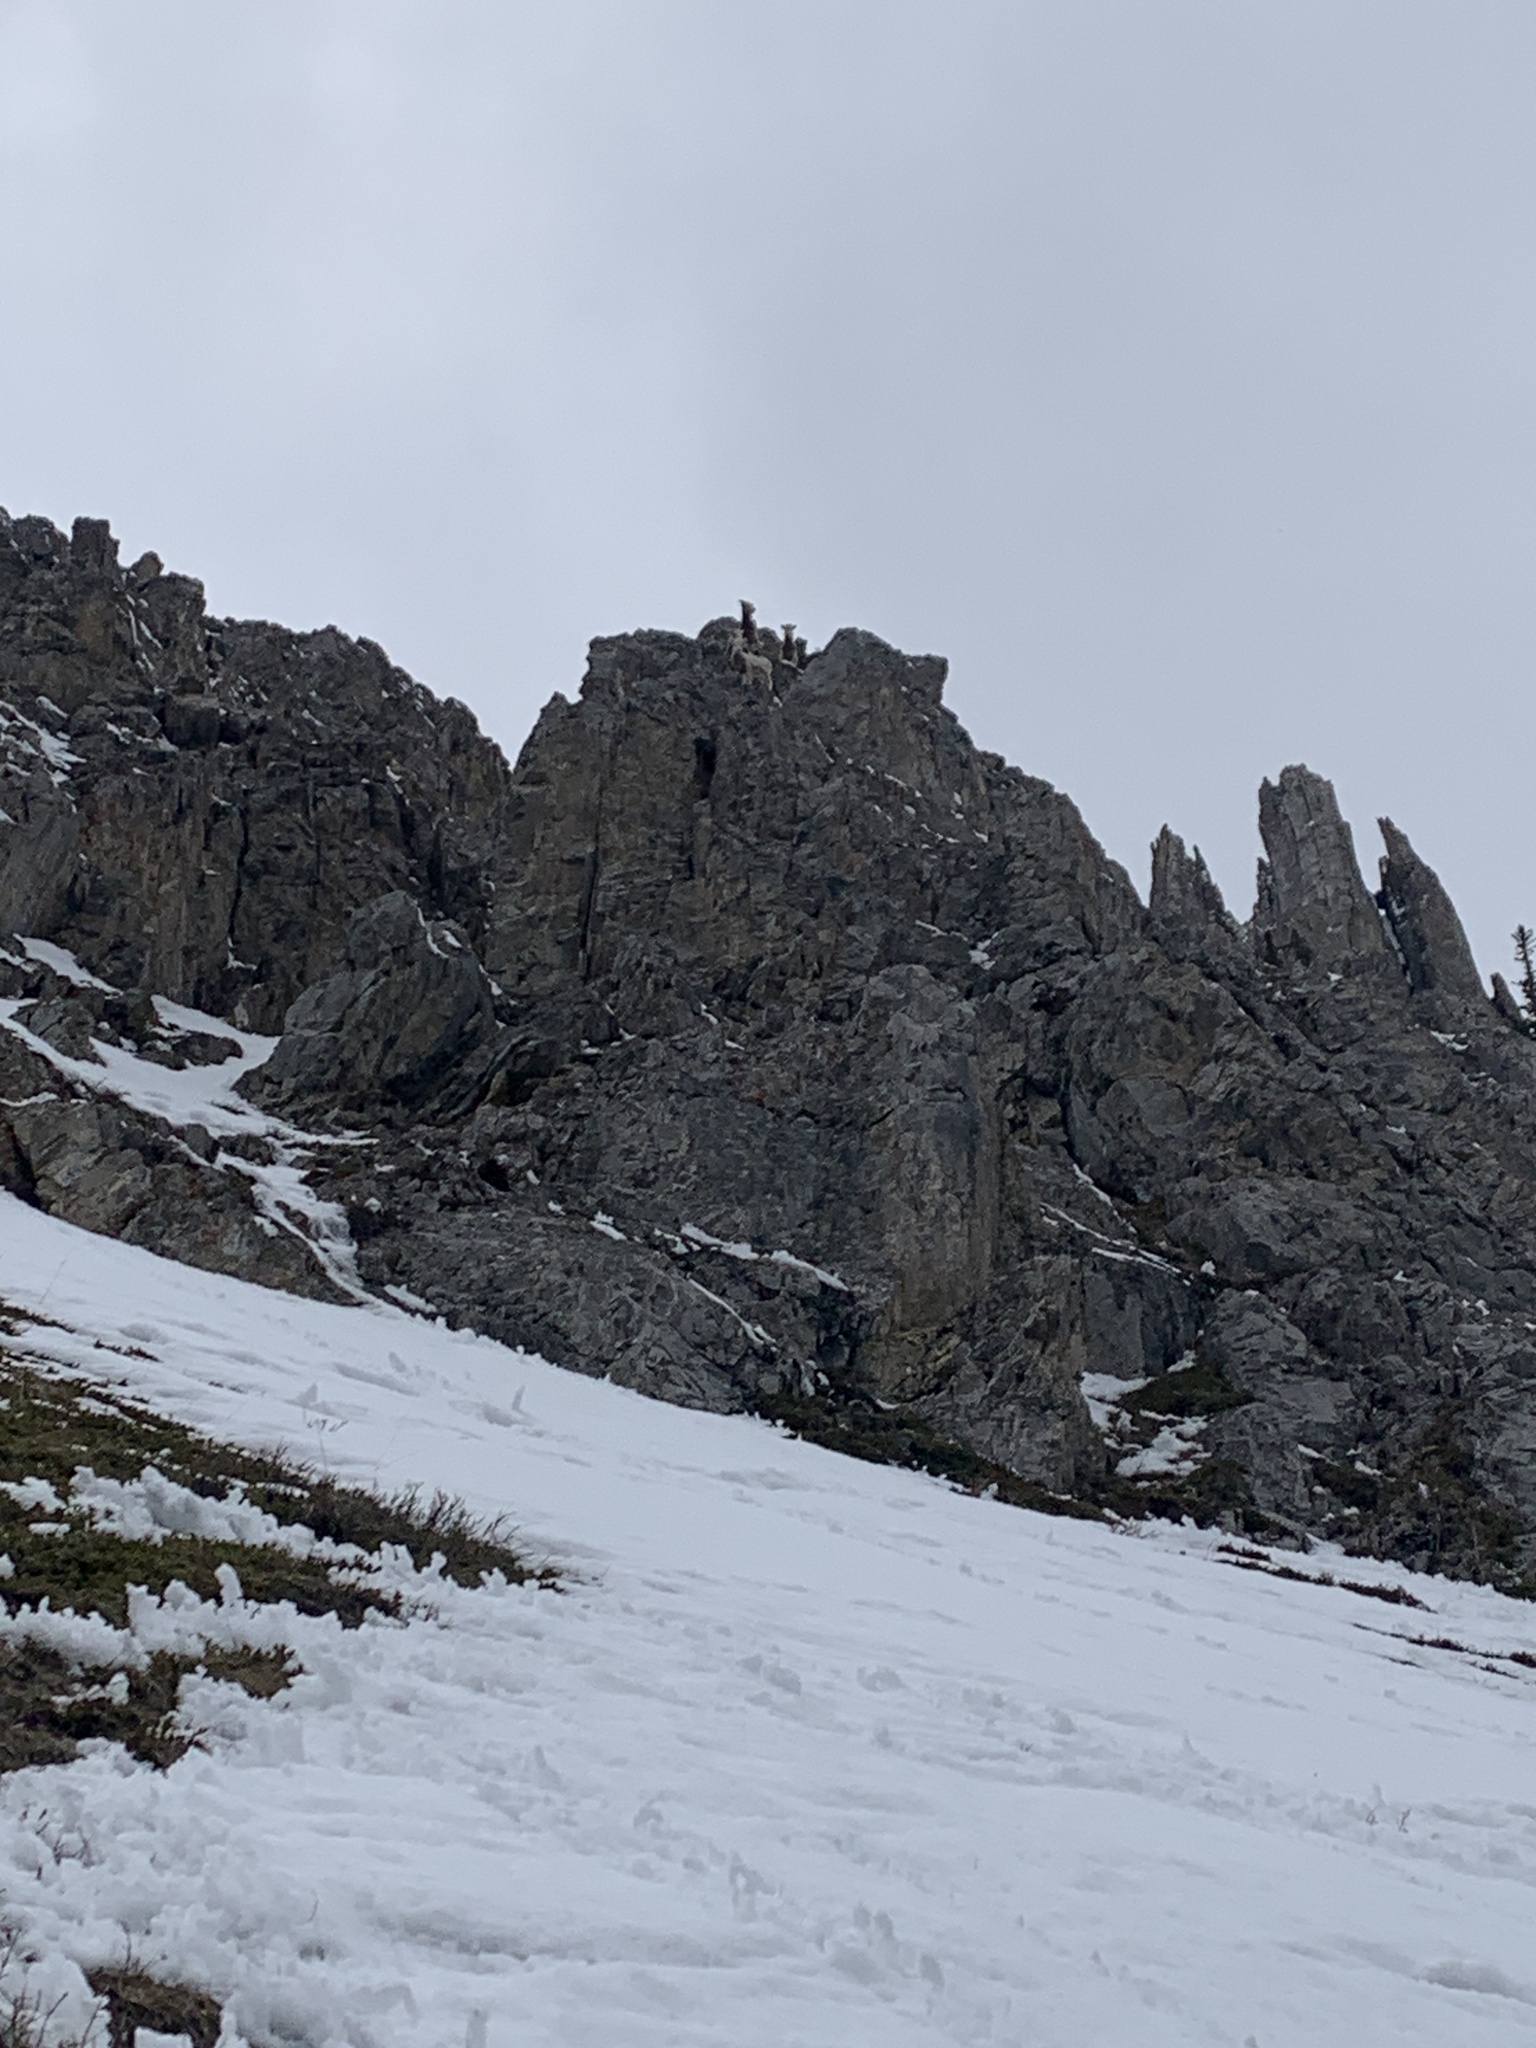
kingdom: Animalia
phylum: Chordata
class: Mammalia
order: Artiodactyla
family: Bovidae
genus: Ovis
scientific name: Ovis canadensis
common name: Bighorn sheep
